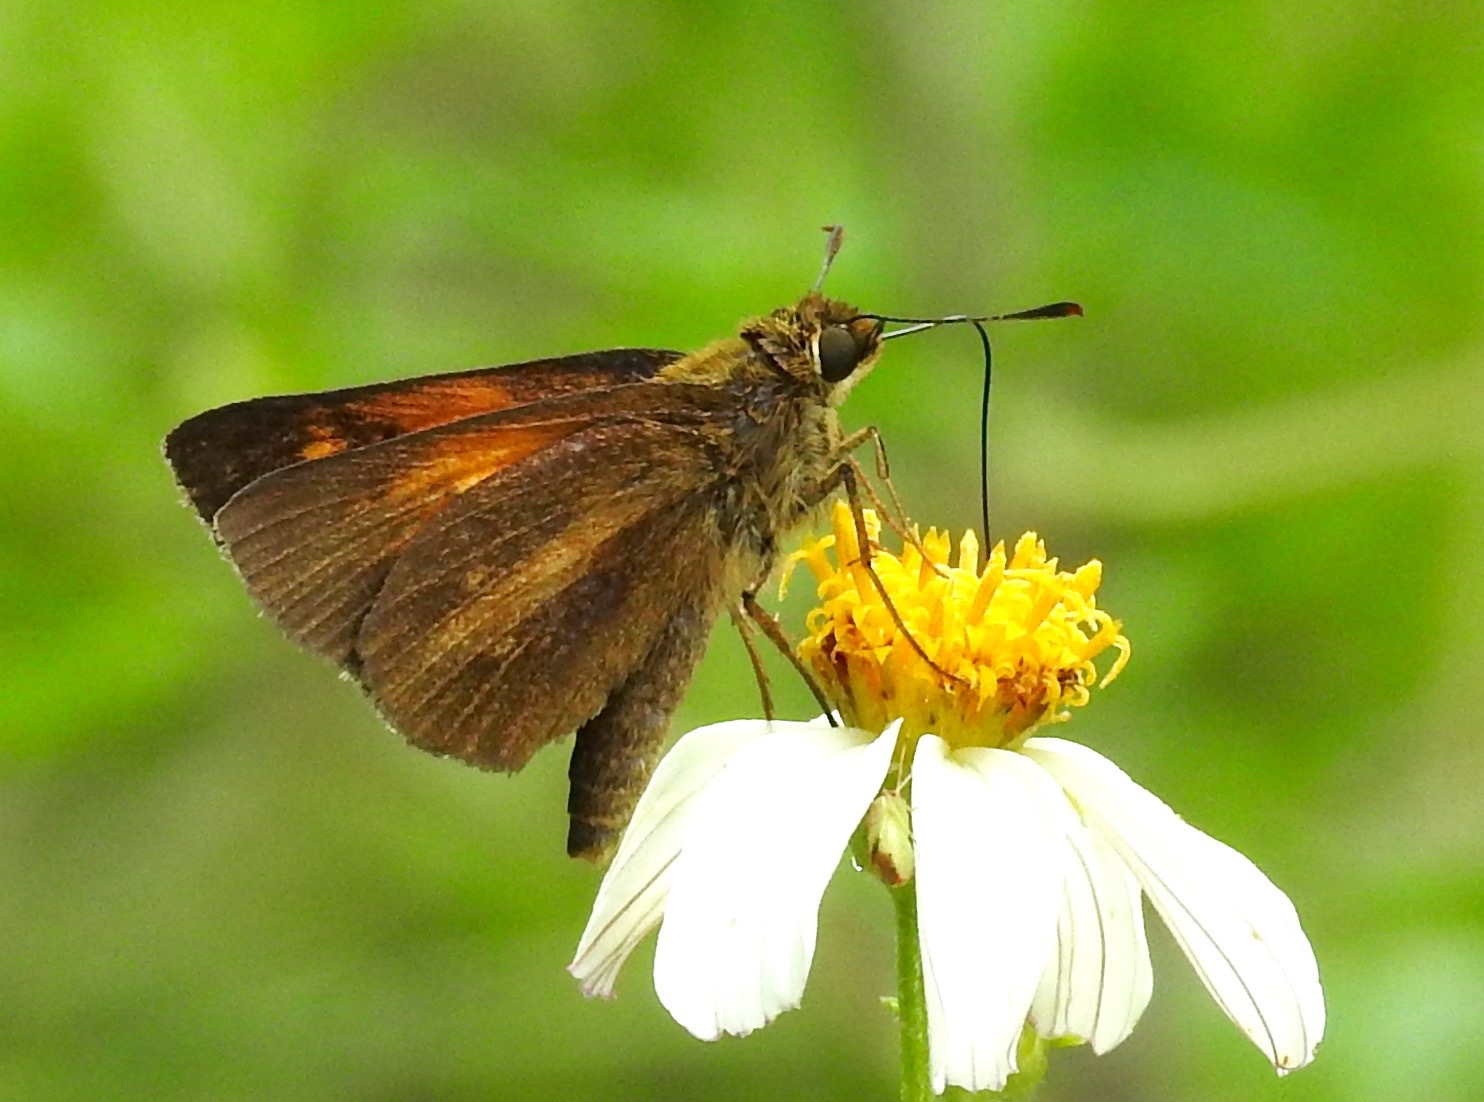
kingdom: Animalia
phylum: Arthropoda
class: Insecta
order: Lepidoptera
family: Hesperiidae
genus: Poanes
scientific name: Poanes aaroni
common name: Aaron's skipper
